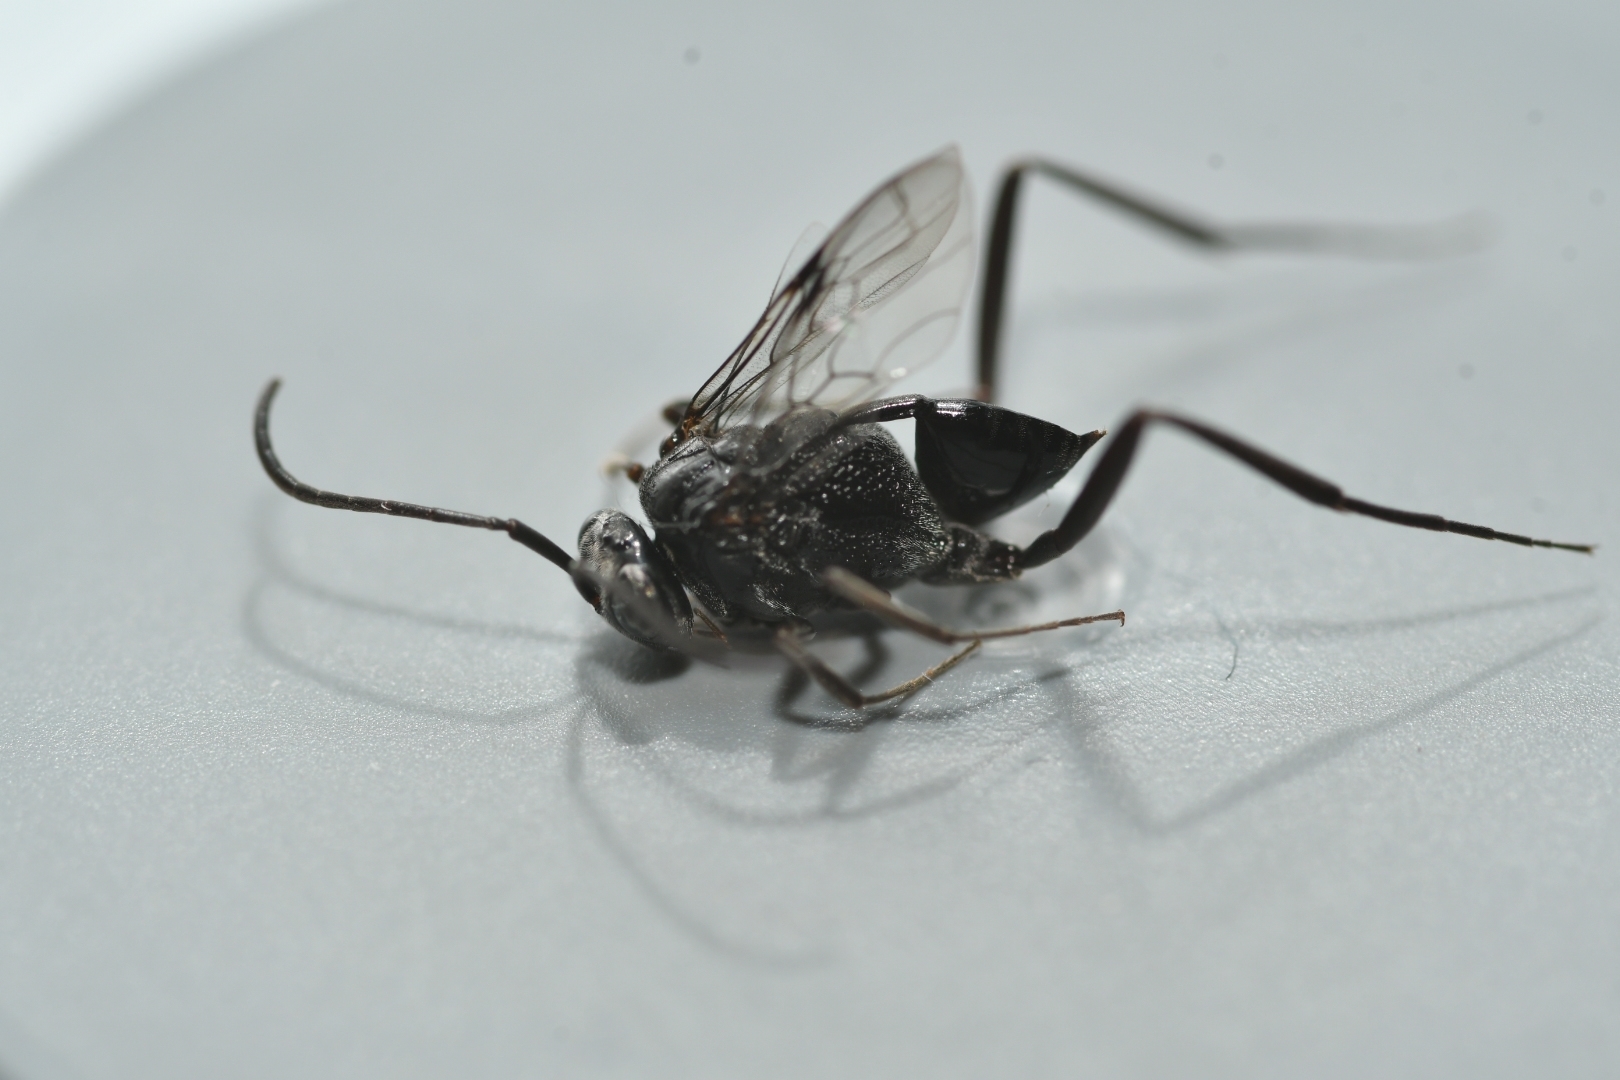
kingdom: Animalia
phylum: Arthropoda
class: Insecta
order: Hymenoptera
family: Evaniidae
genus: Evania
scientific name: Evania appendigaster
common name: Ensign wasp
